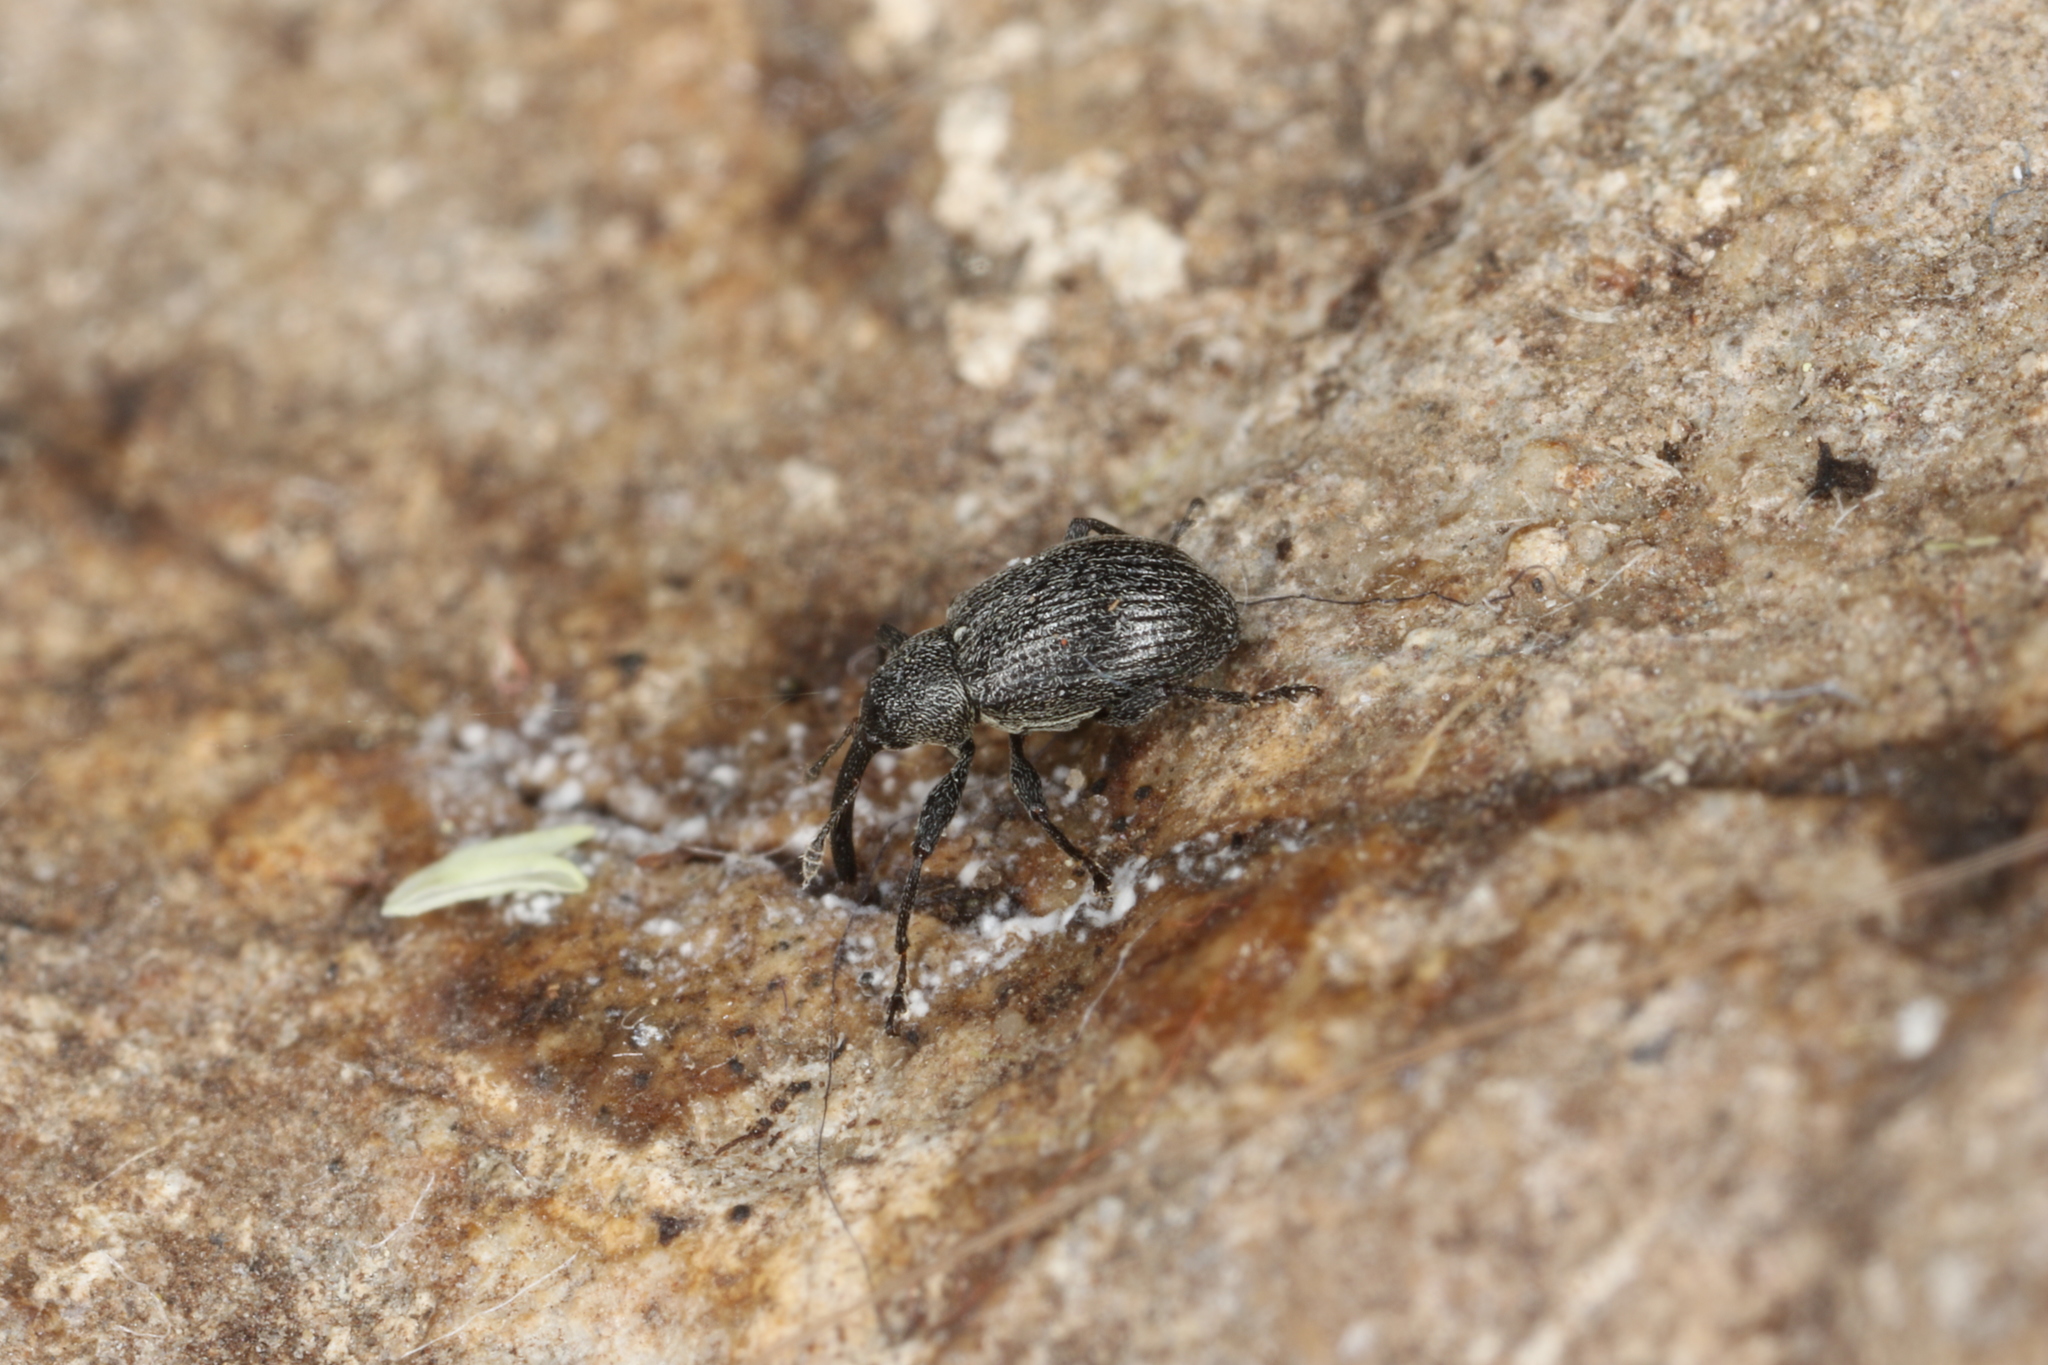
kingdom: Animalia
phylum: Arthropoda
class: Insecta
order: Coleoptera
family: Curculionidae
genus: Anthonomus
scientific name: Anthonomus rubi
